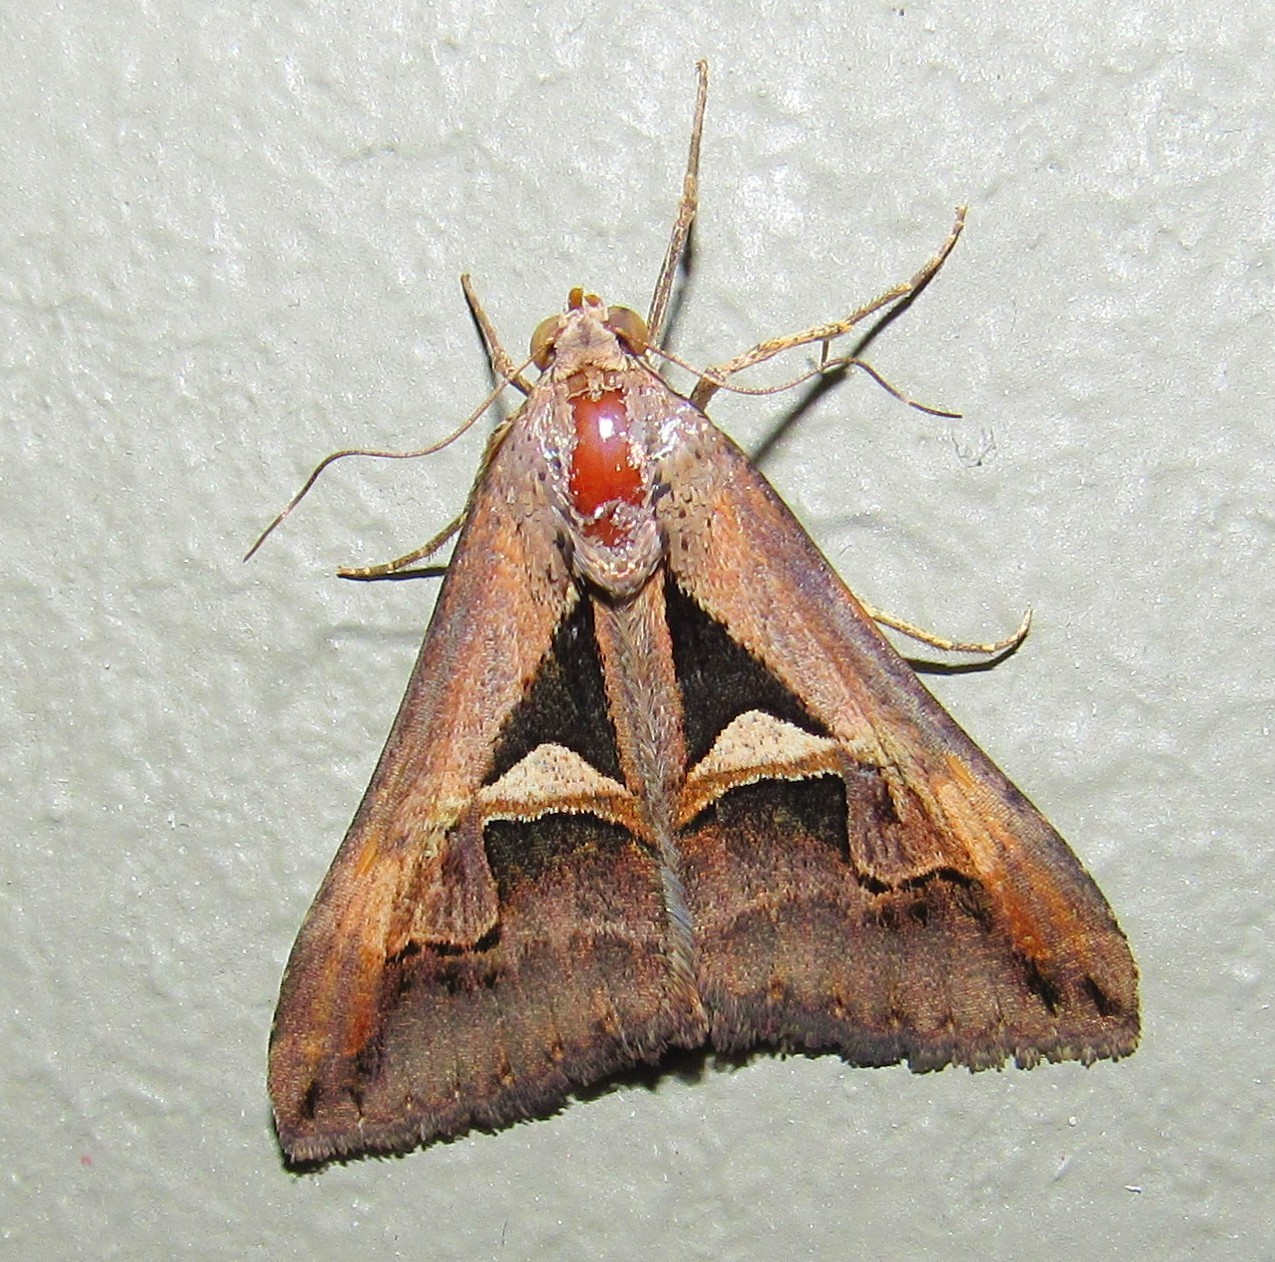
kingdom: Animalia
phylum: Arthropoda
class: Insecta
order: Lepidoptera
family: Erebidae
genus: Melipotis
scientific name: Melipotis cellaris
